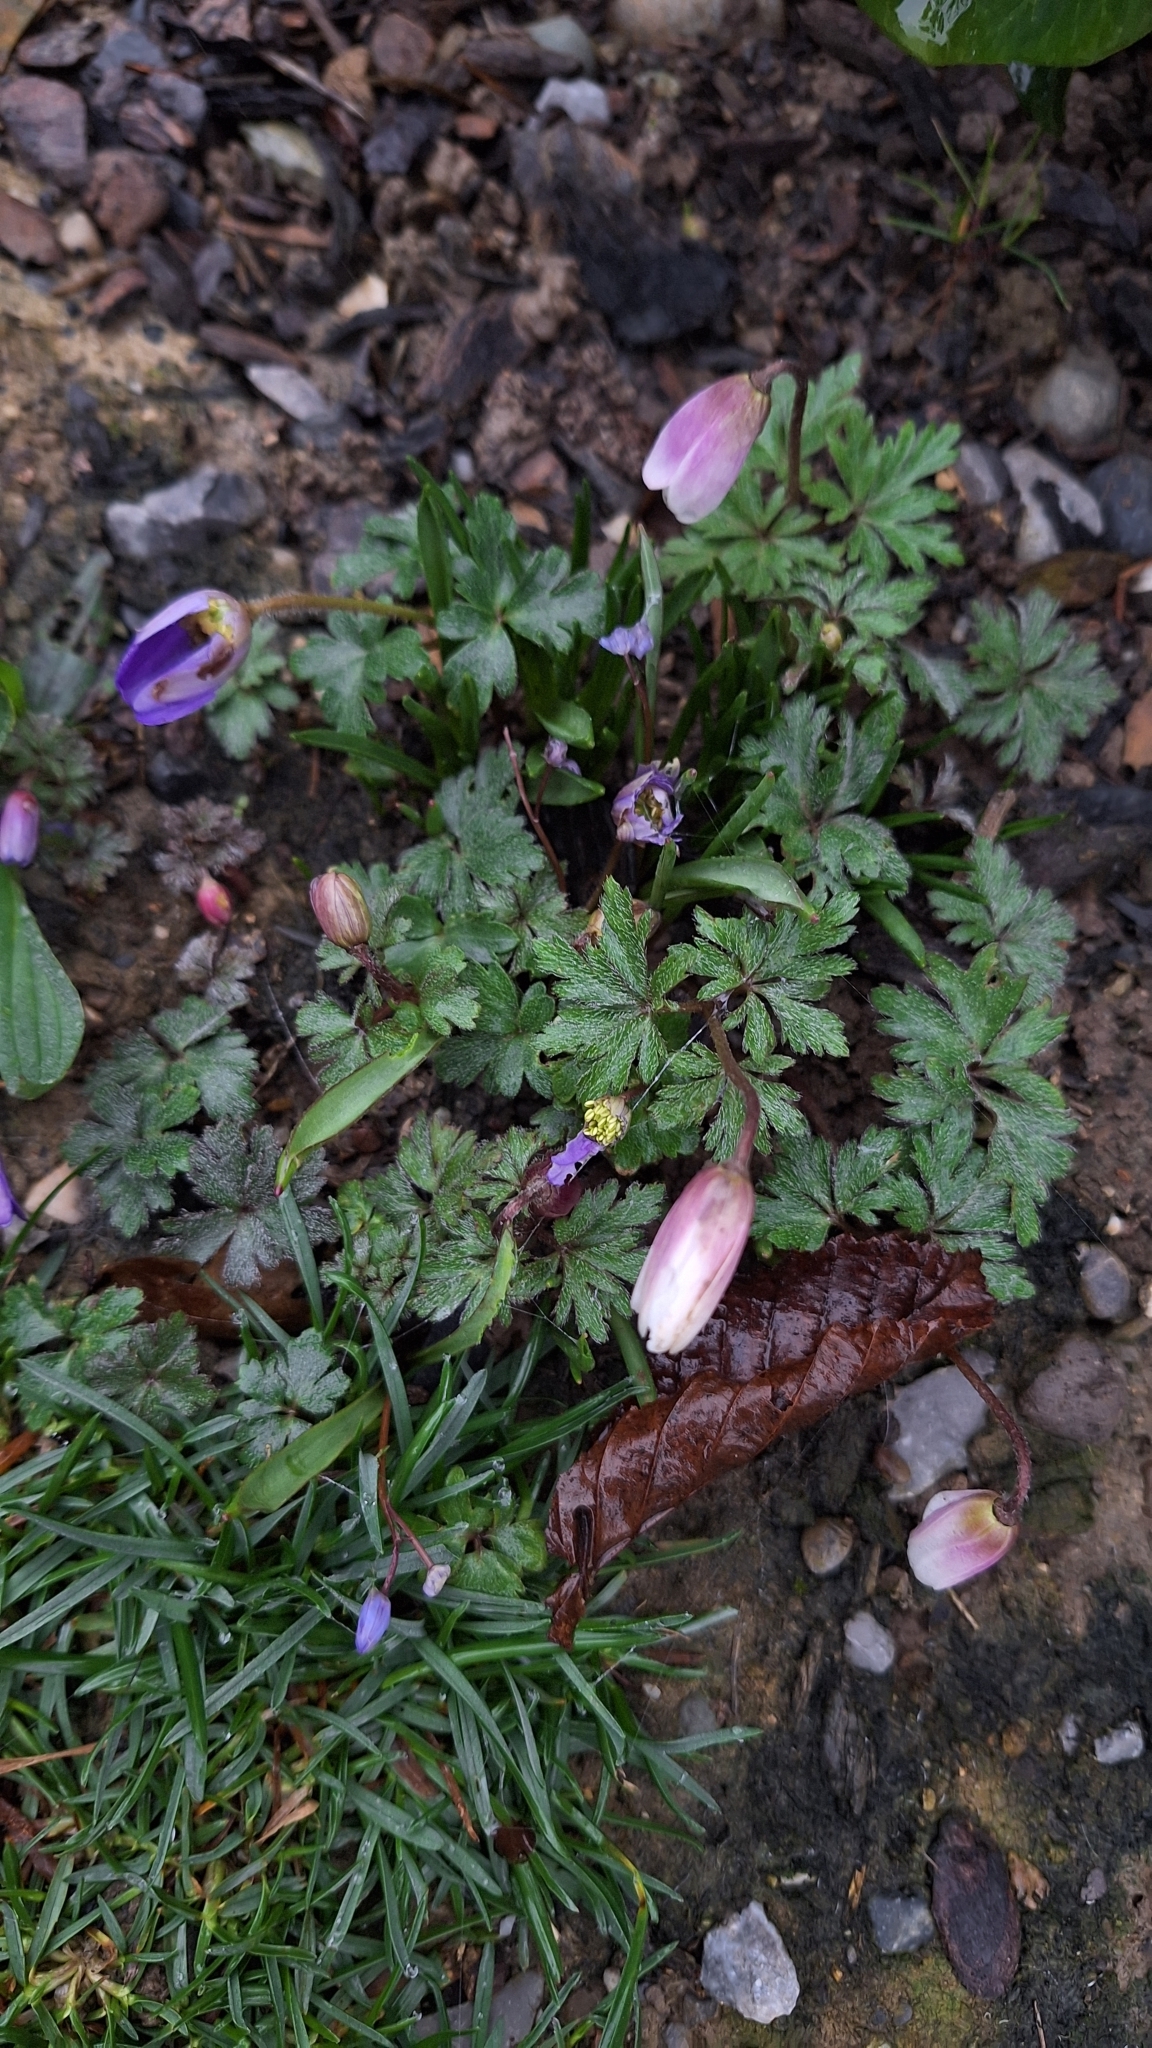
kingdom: Plantae
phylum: Tracheophyta
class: Magnoliopsida
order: Ranunculales
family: Ranunculaceae
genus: Anemone
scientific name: Anemone blanda
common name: Balkan anemone
